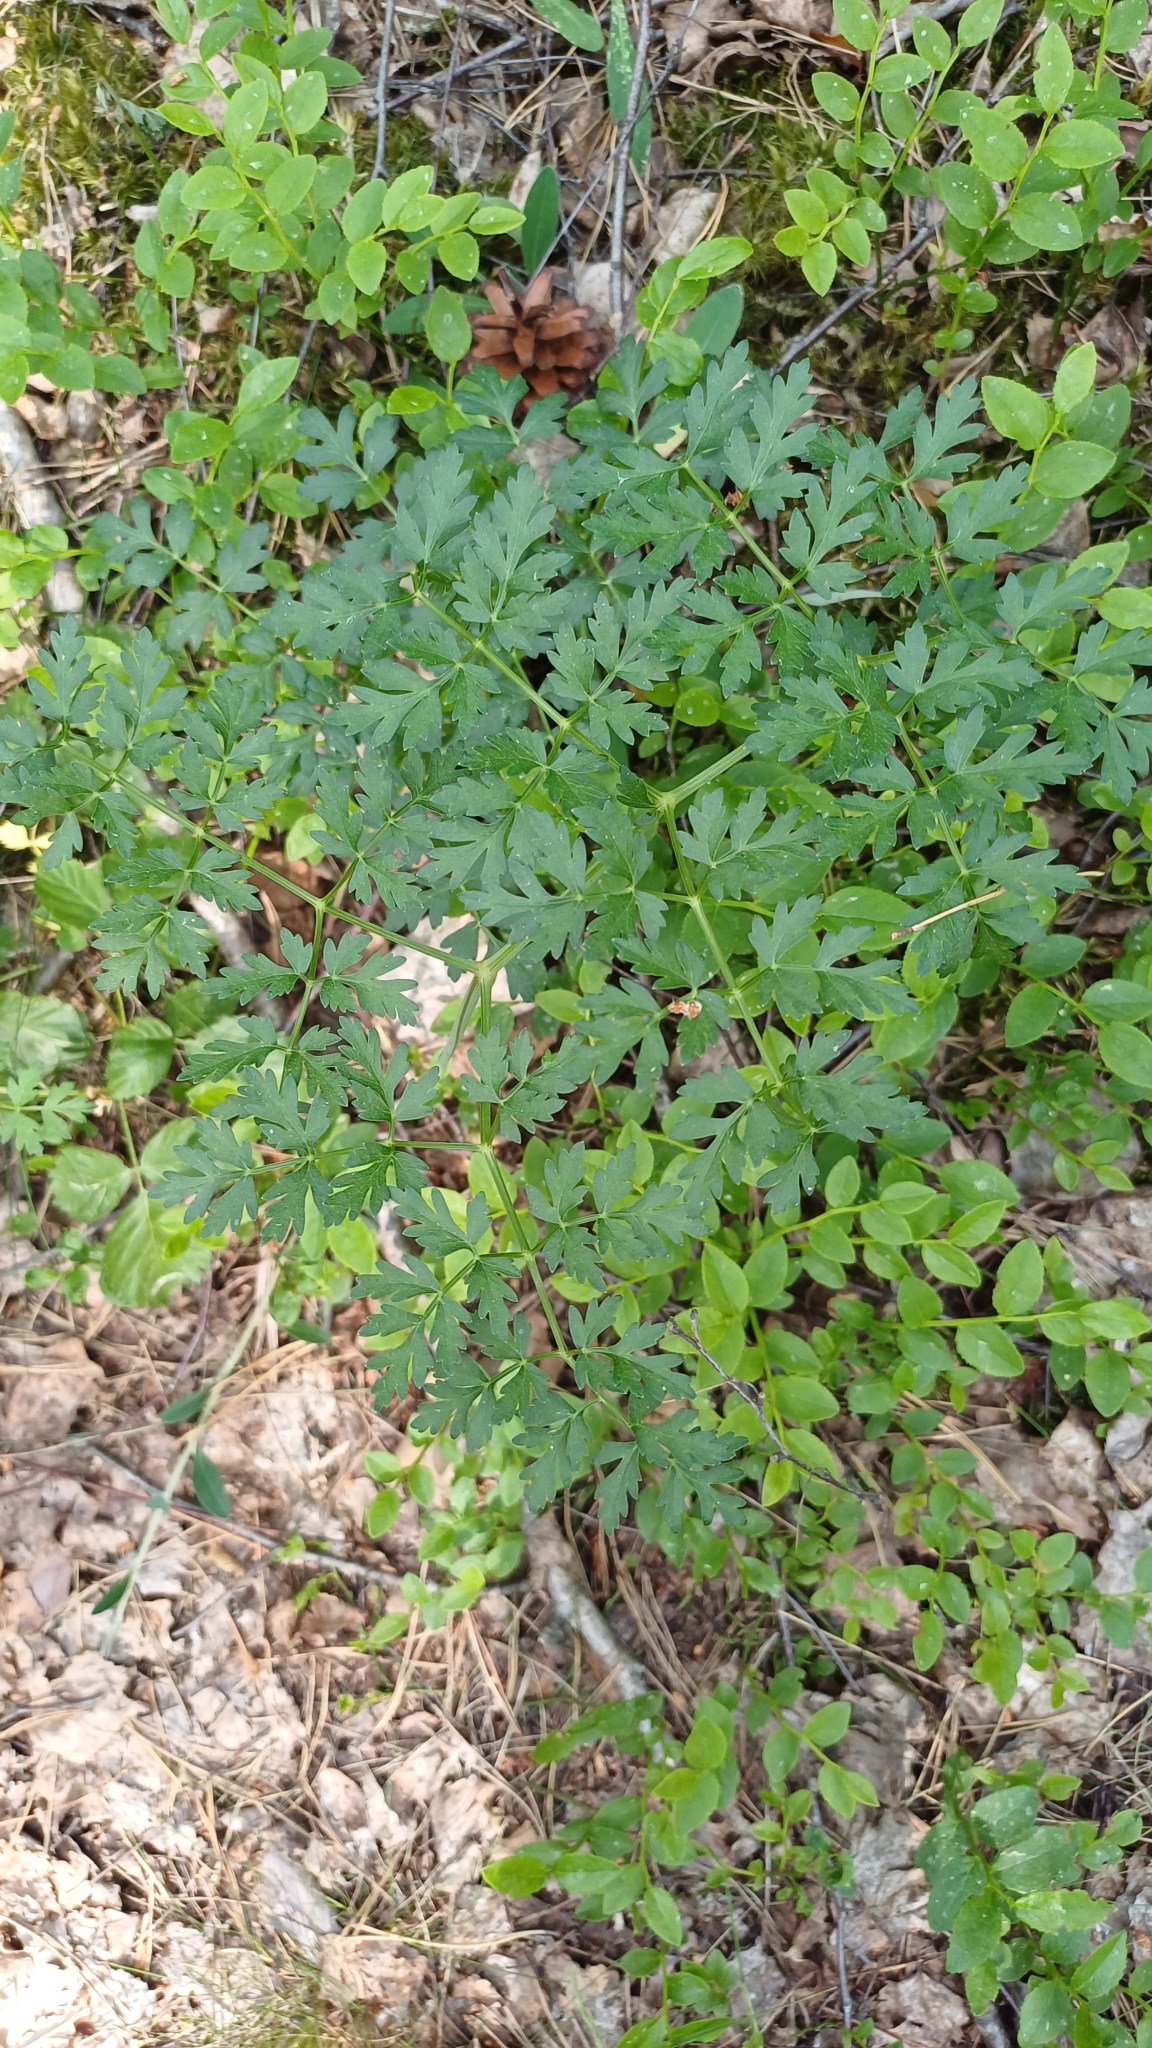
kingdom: Plantae
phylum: Tracheophyta
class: Magnoliopsida
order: Apiales
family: Apiaceae
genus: Oreoselinum
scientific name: Oreoselinum nigrum
